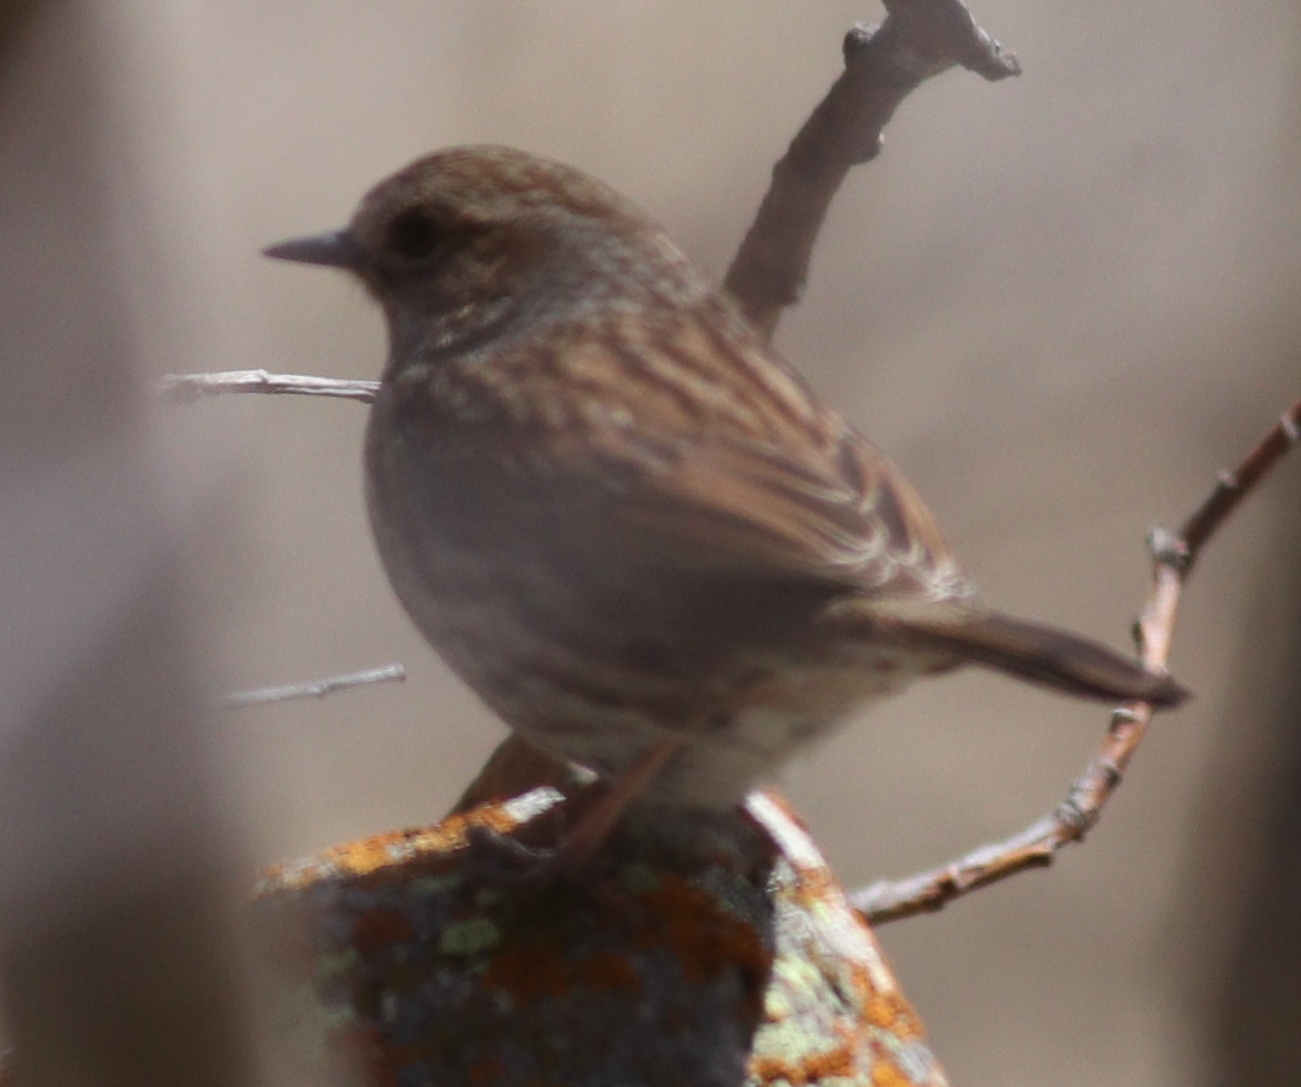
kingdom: Animalia
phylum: Chordata
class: Aves
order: Passeriformes
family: Prunellidae
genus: Prunella
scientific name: Prunella modularis
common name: Dunnock
